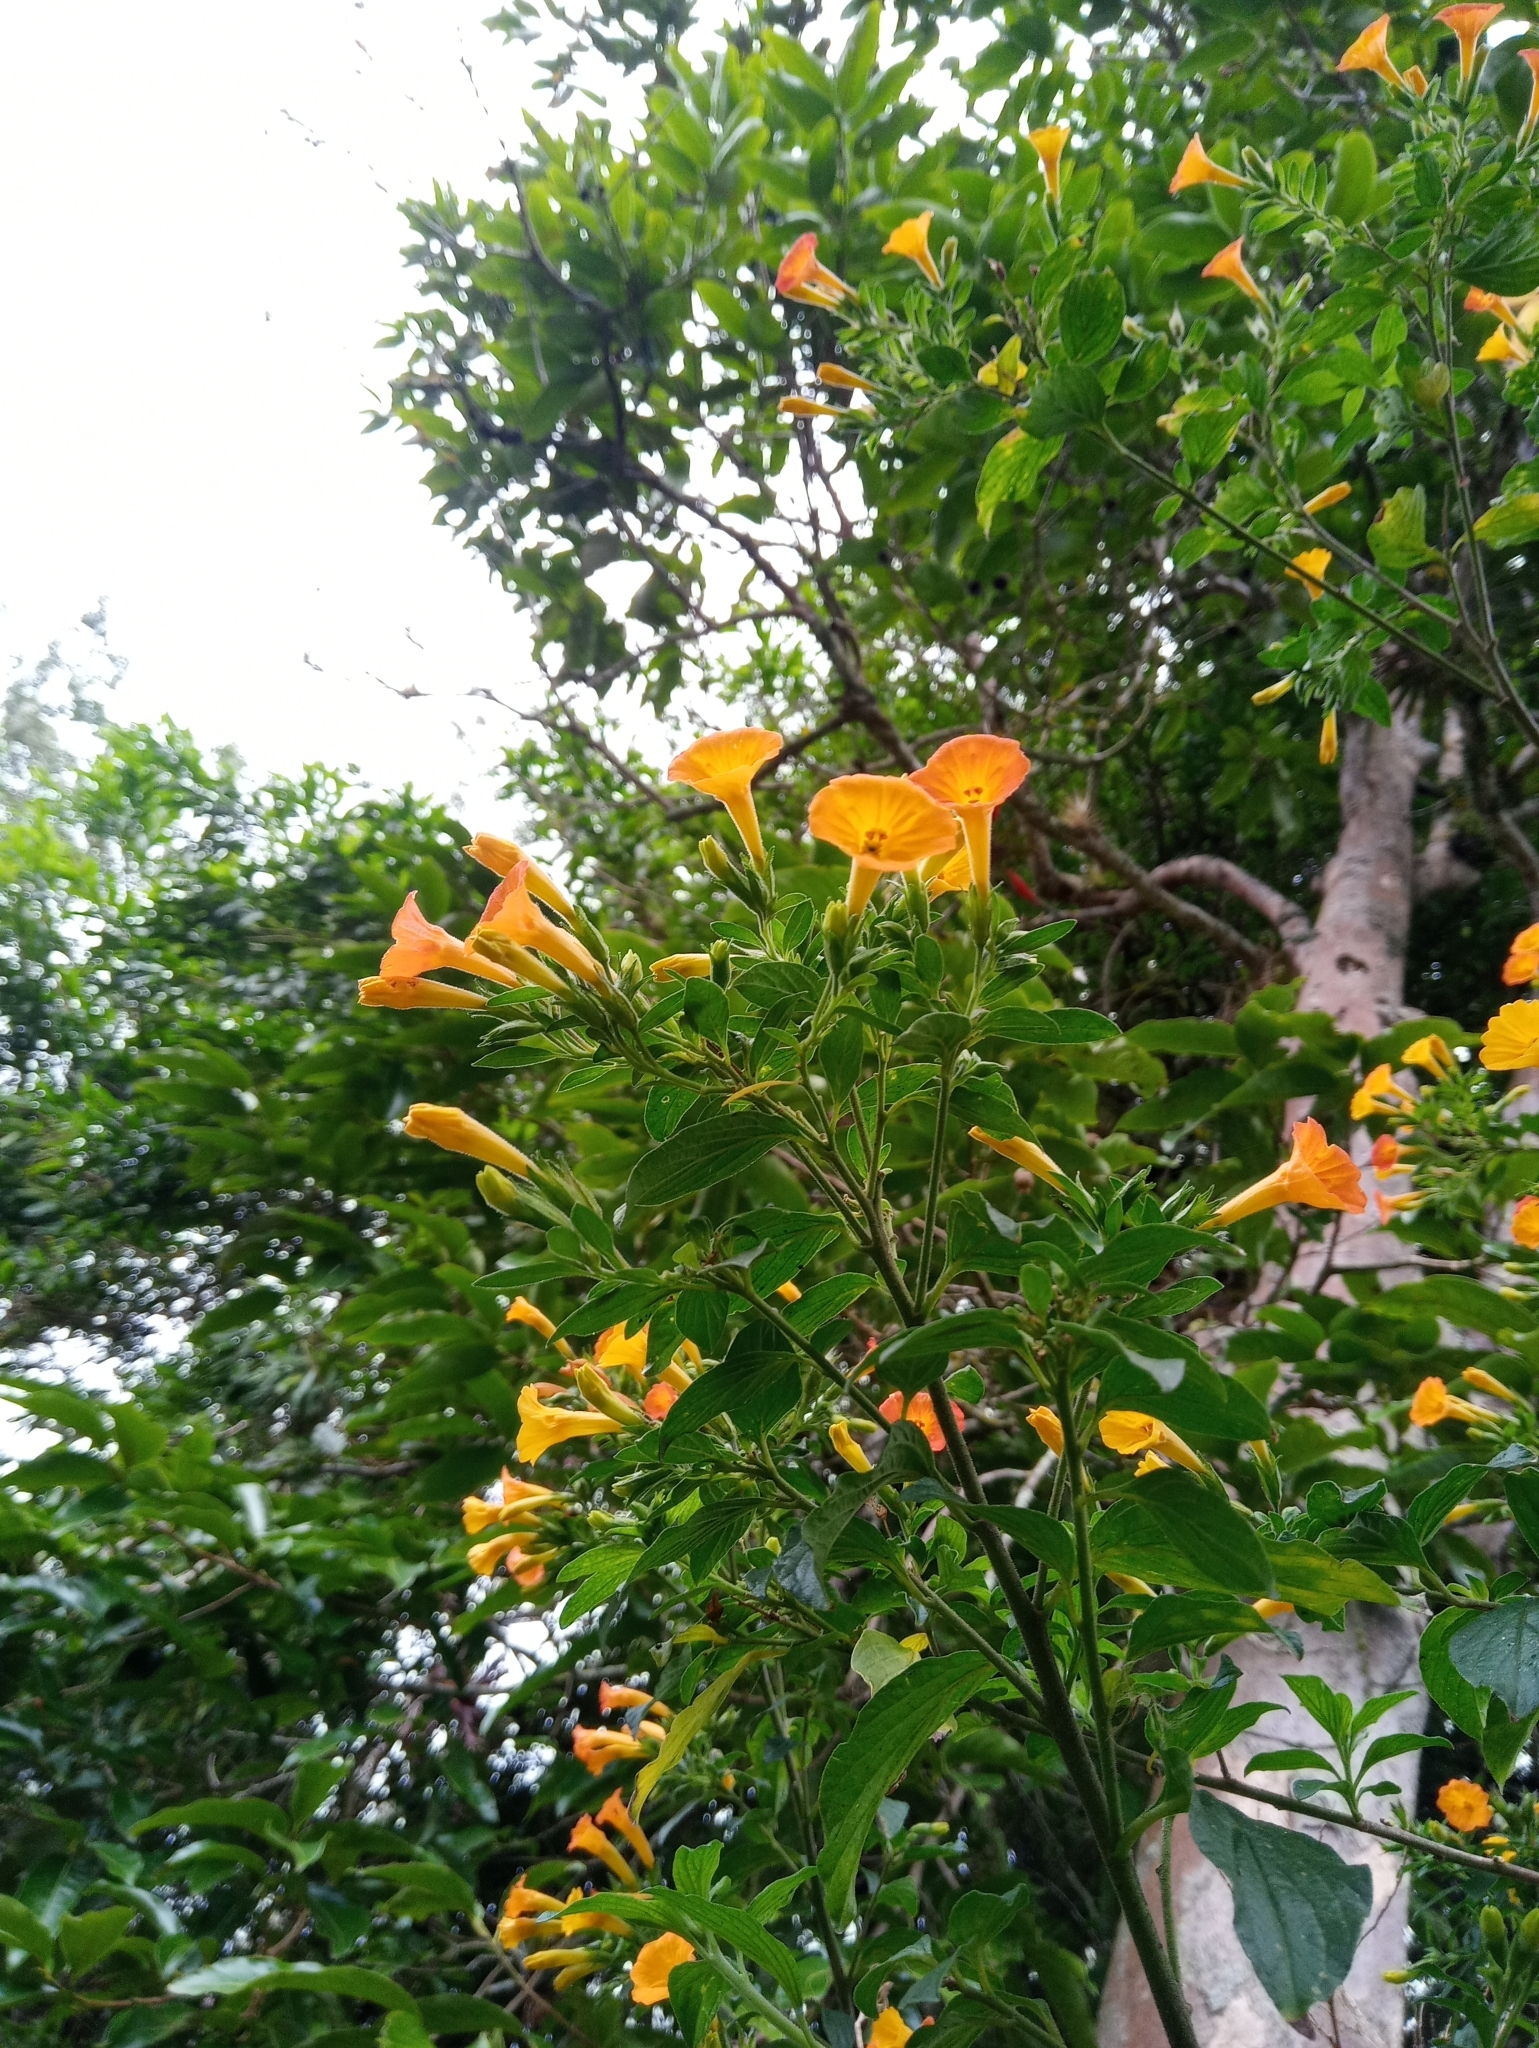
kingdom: Plantae
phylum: Tracheophyta
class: Magnoliopsida
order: Solanales
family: Solanaceae
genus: Streptosolen
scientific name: Streptosolen jamesonii
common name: Marmalade bush
